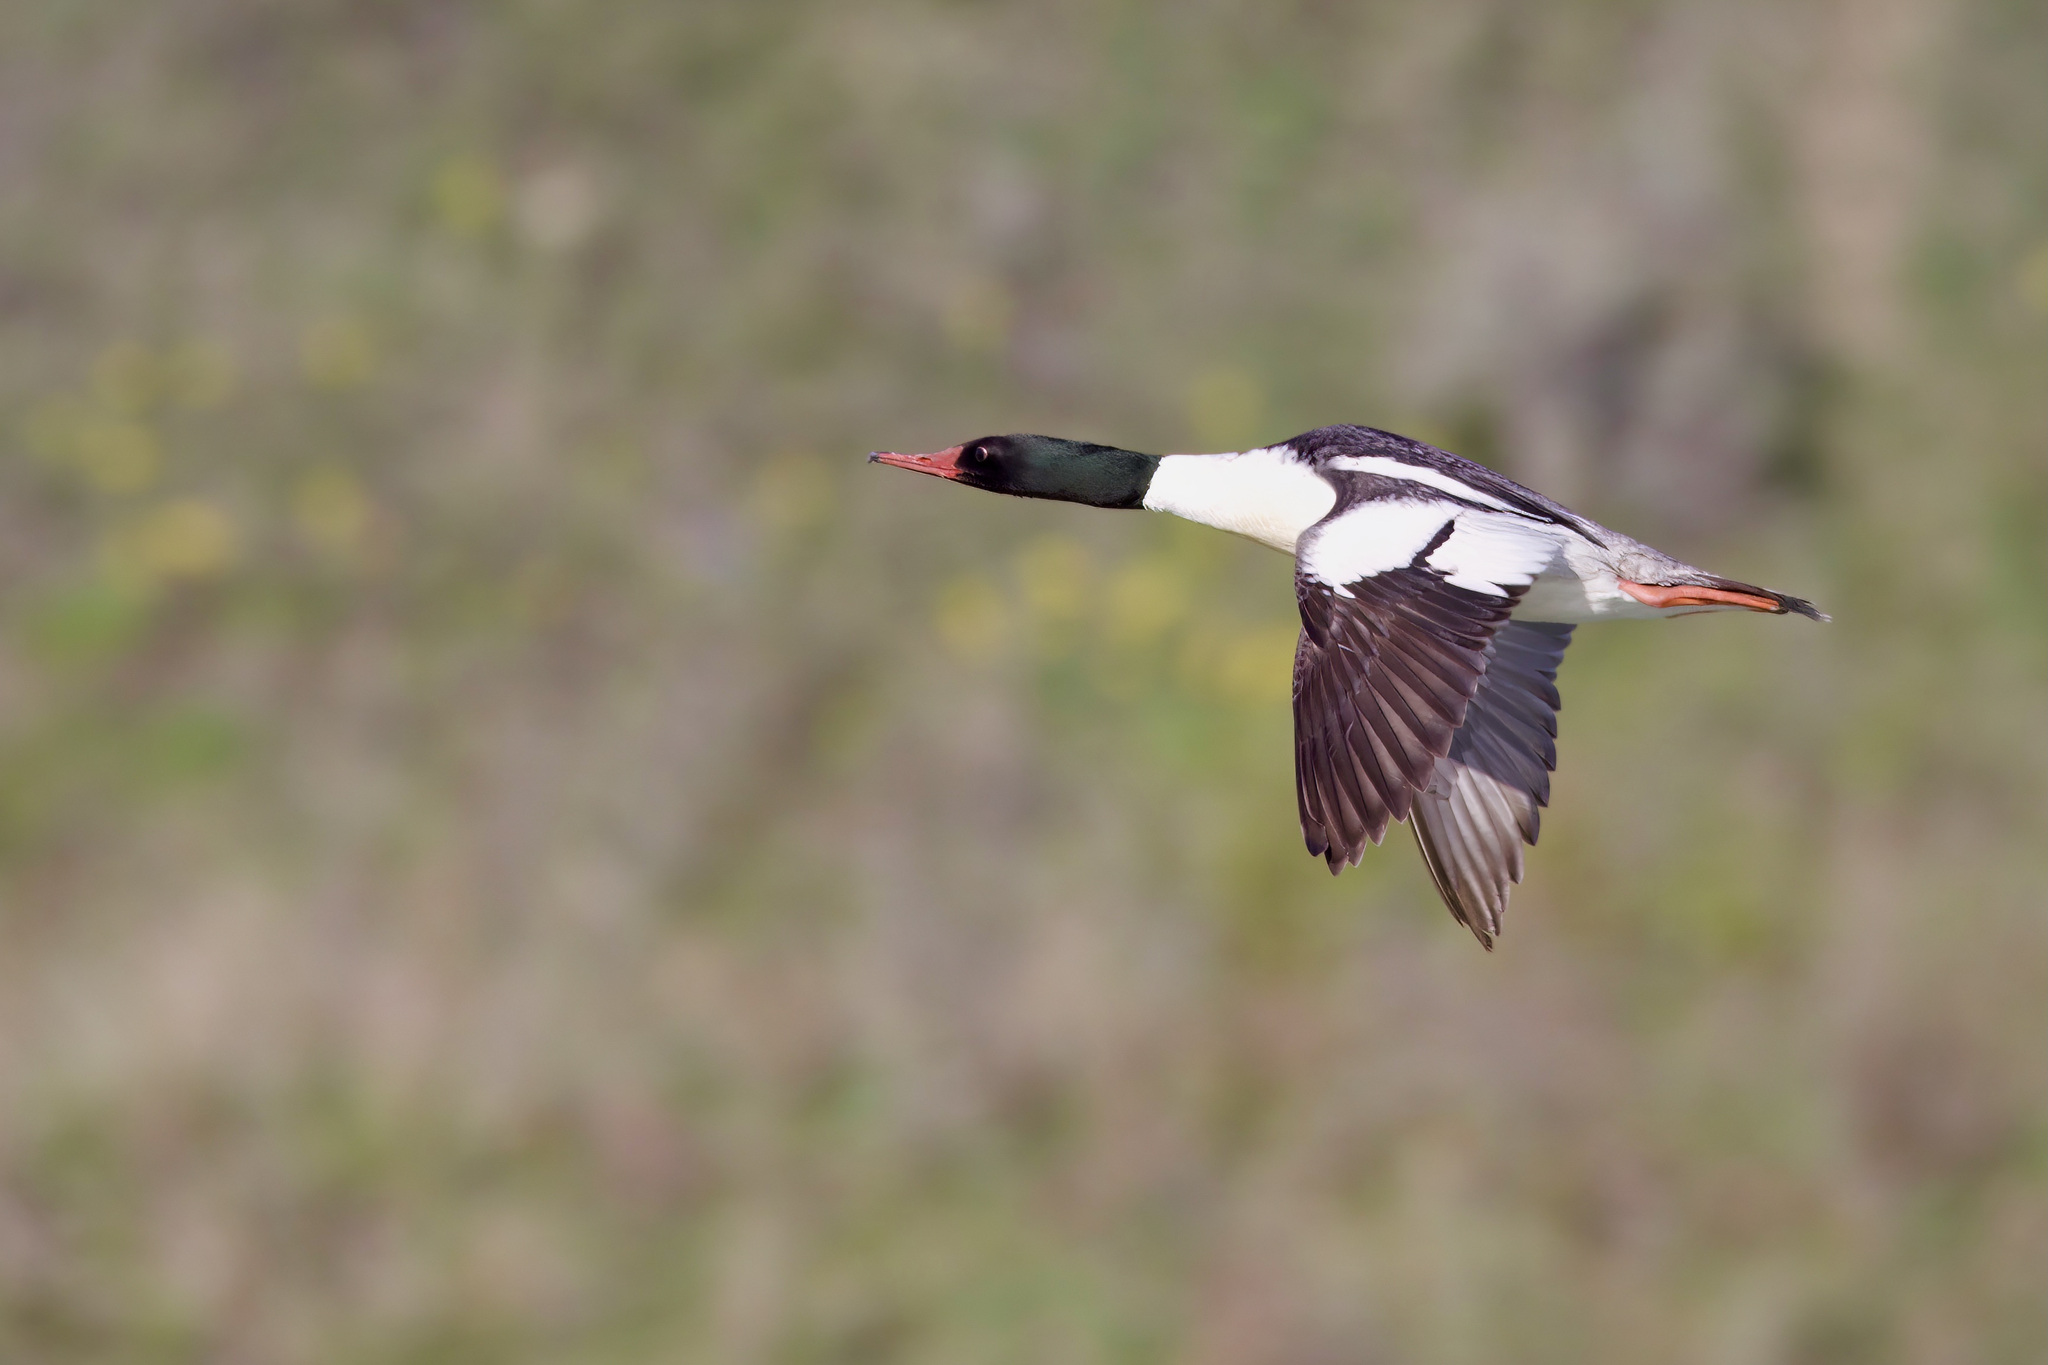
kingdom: Animalia
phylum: Chordata
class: Aves
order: Anseriformes
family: Anatidae
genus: Mergus
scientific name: Mergus merganser
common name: Common merganser
